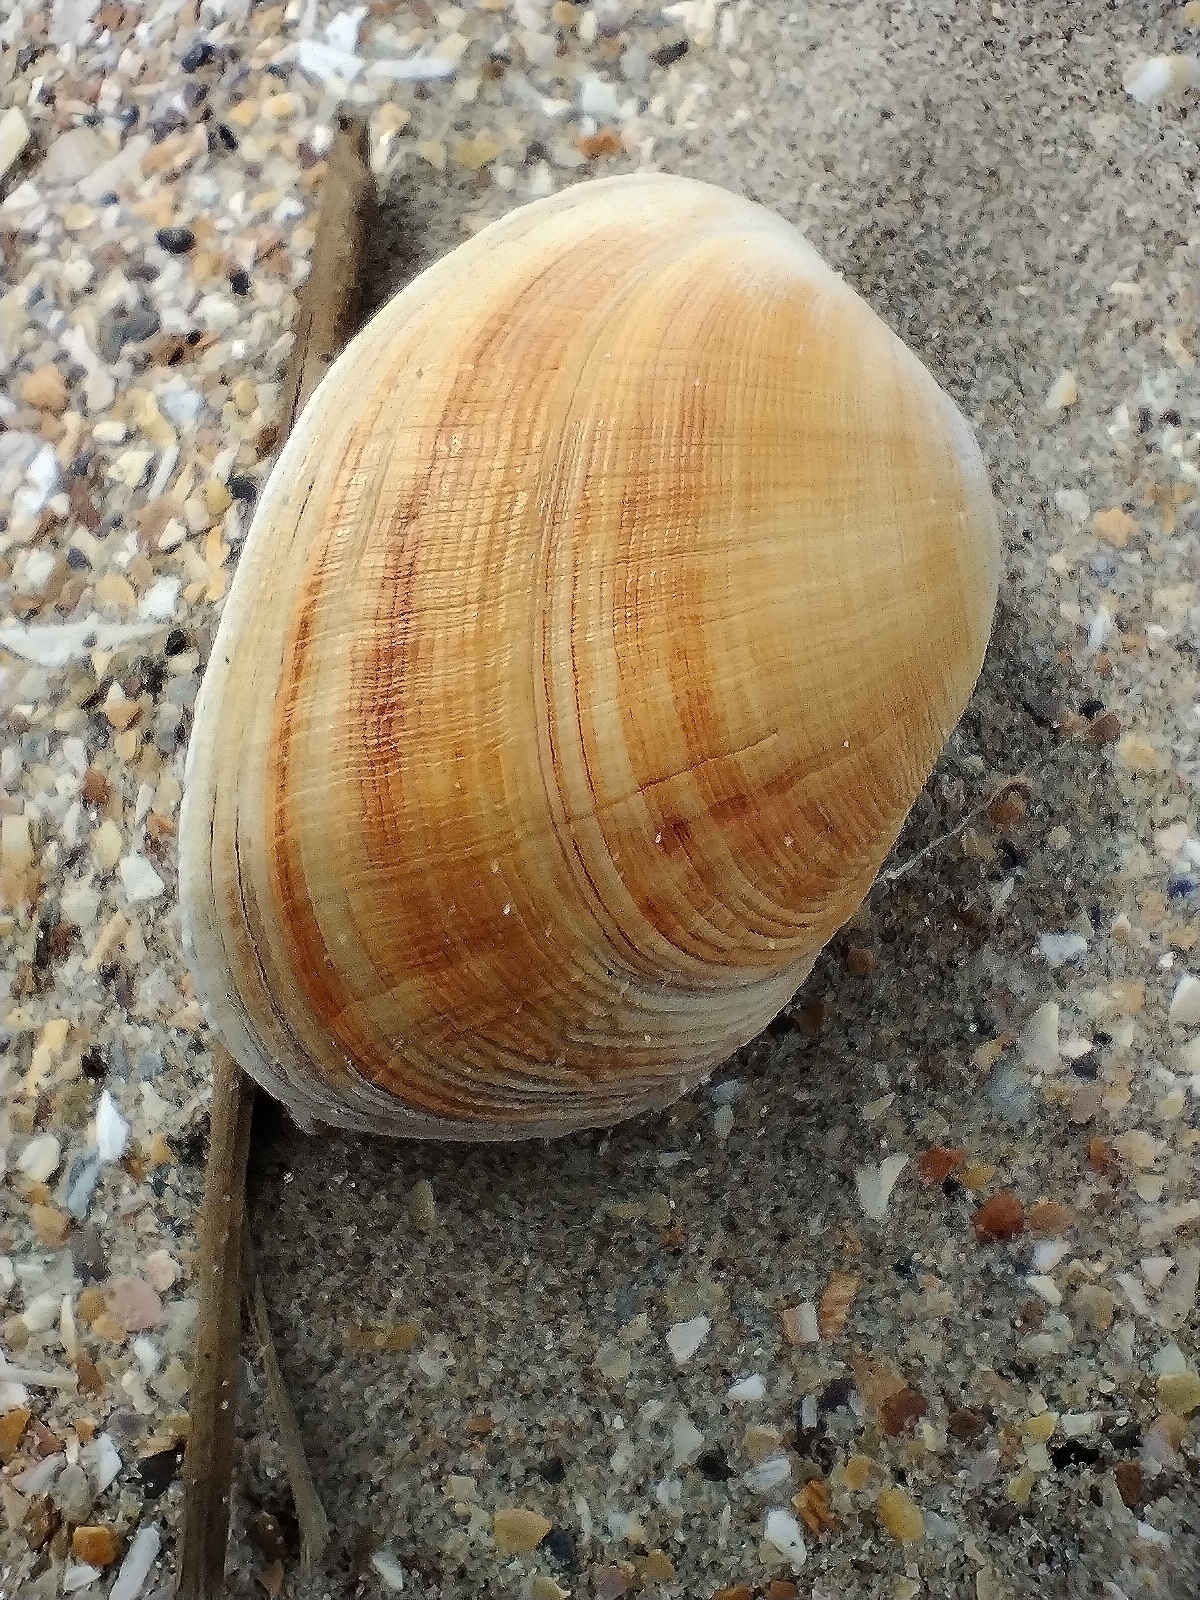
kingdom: Animalia
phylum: Mollusca
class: Bivalvia
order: Venerida
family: Veneridae
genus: Venerupis
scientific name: Venerupis corrugata
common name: Pullet carpet shell
